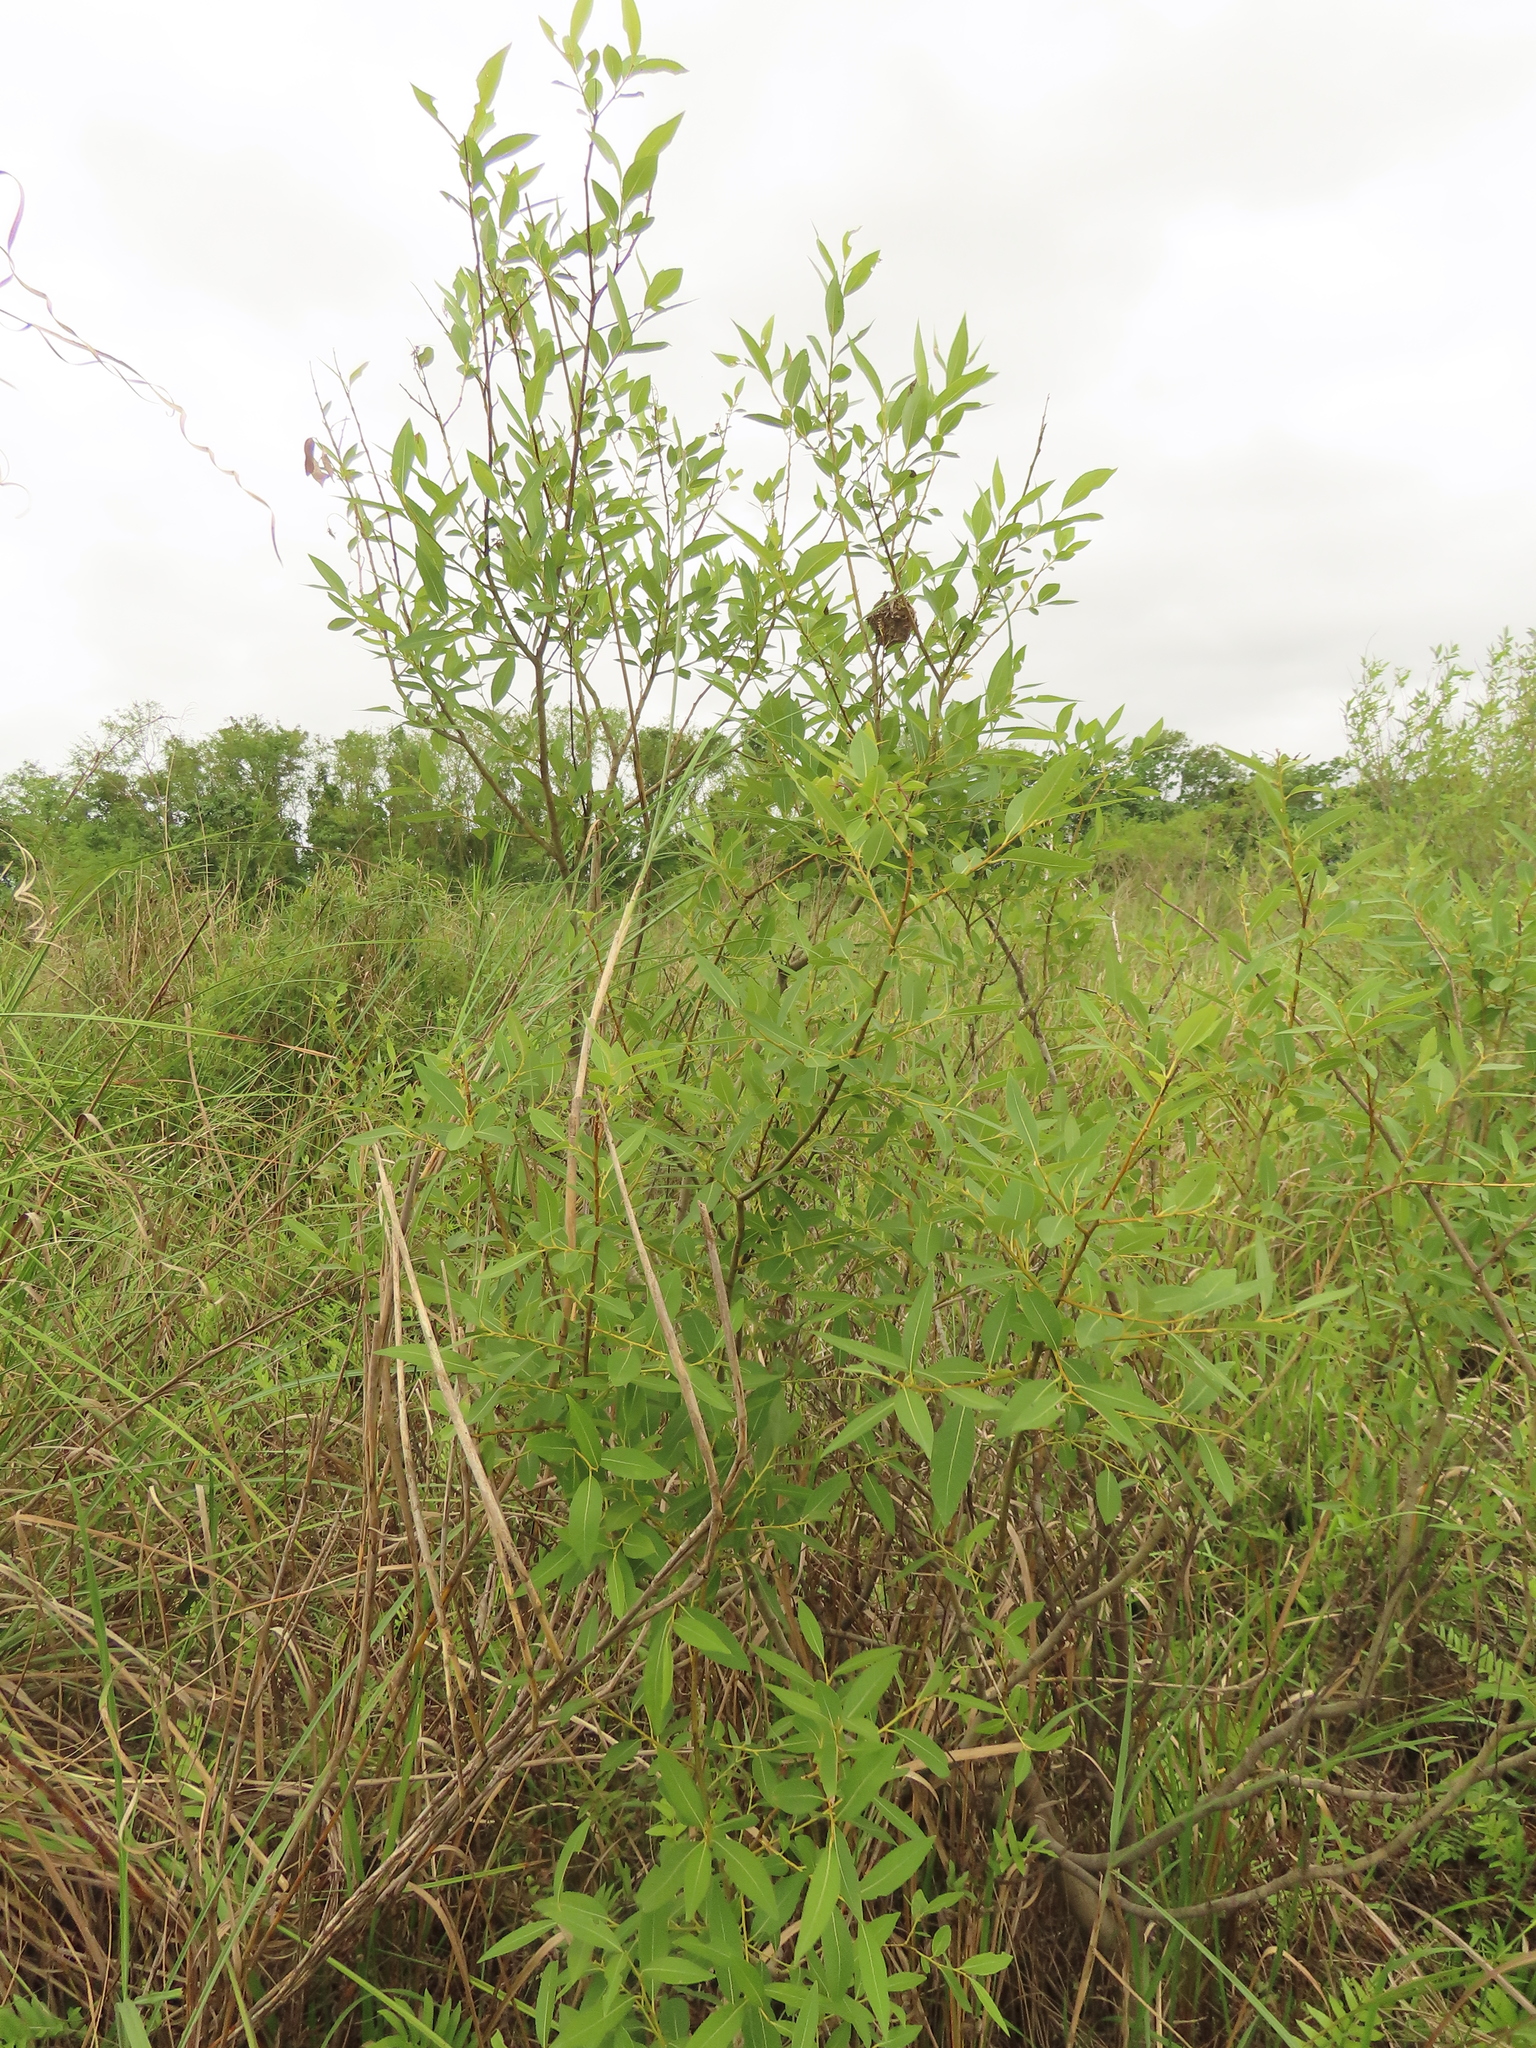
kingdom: Plantae
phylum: Tracheophyta
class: Magnoliopsida
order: Malpighiales
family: Salicaceae
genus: Salix
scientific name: Salix mesnyi
